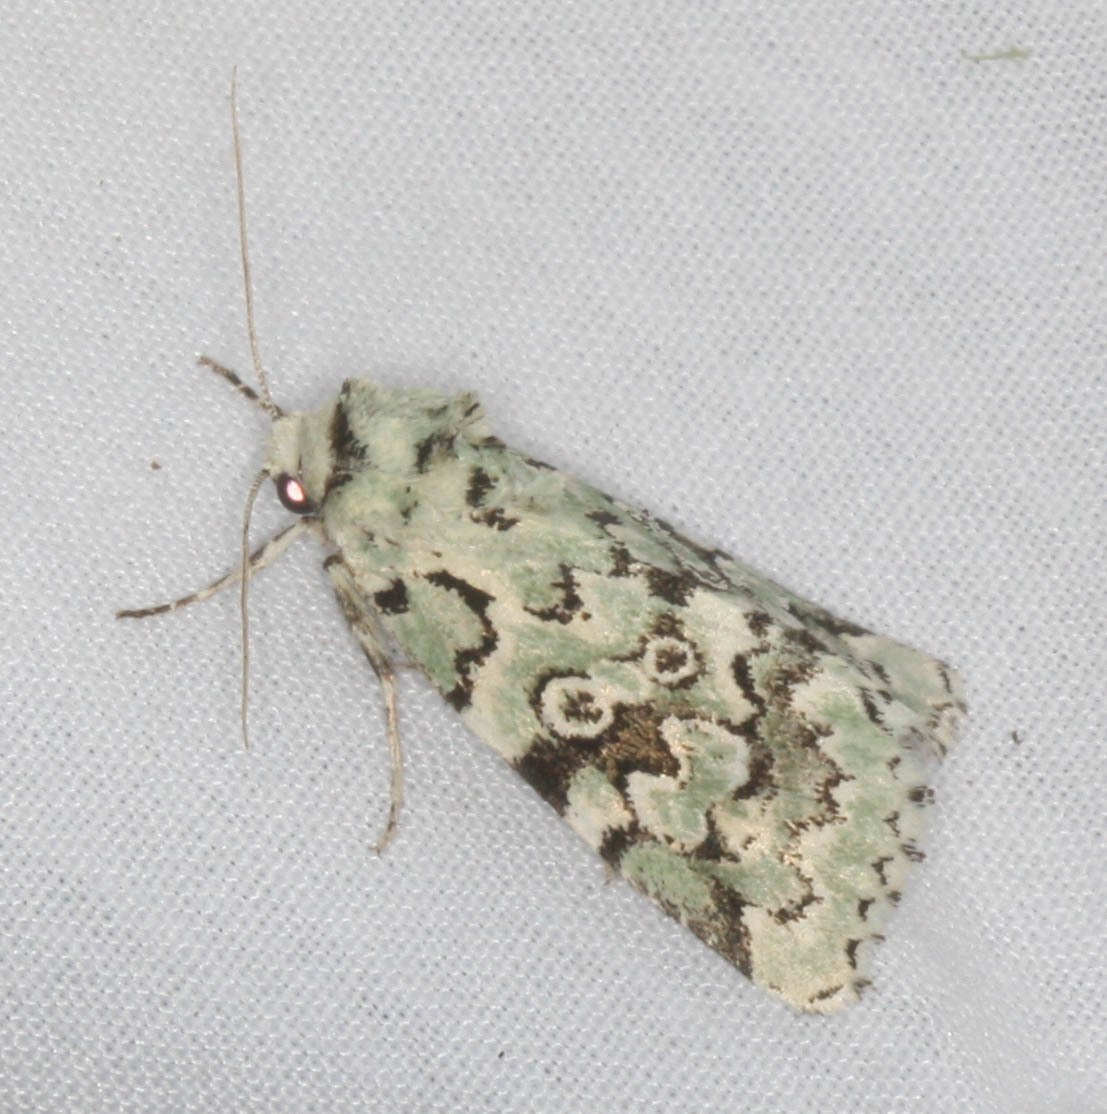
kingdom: Animalia
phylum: Arthropoda
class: Insecta
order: Lepidoptera
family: Noctuidae
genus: Bryolymnia
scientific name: Bryolymnia viridata
